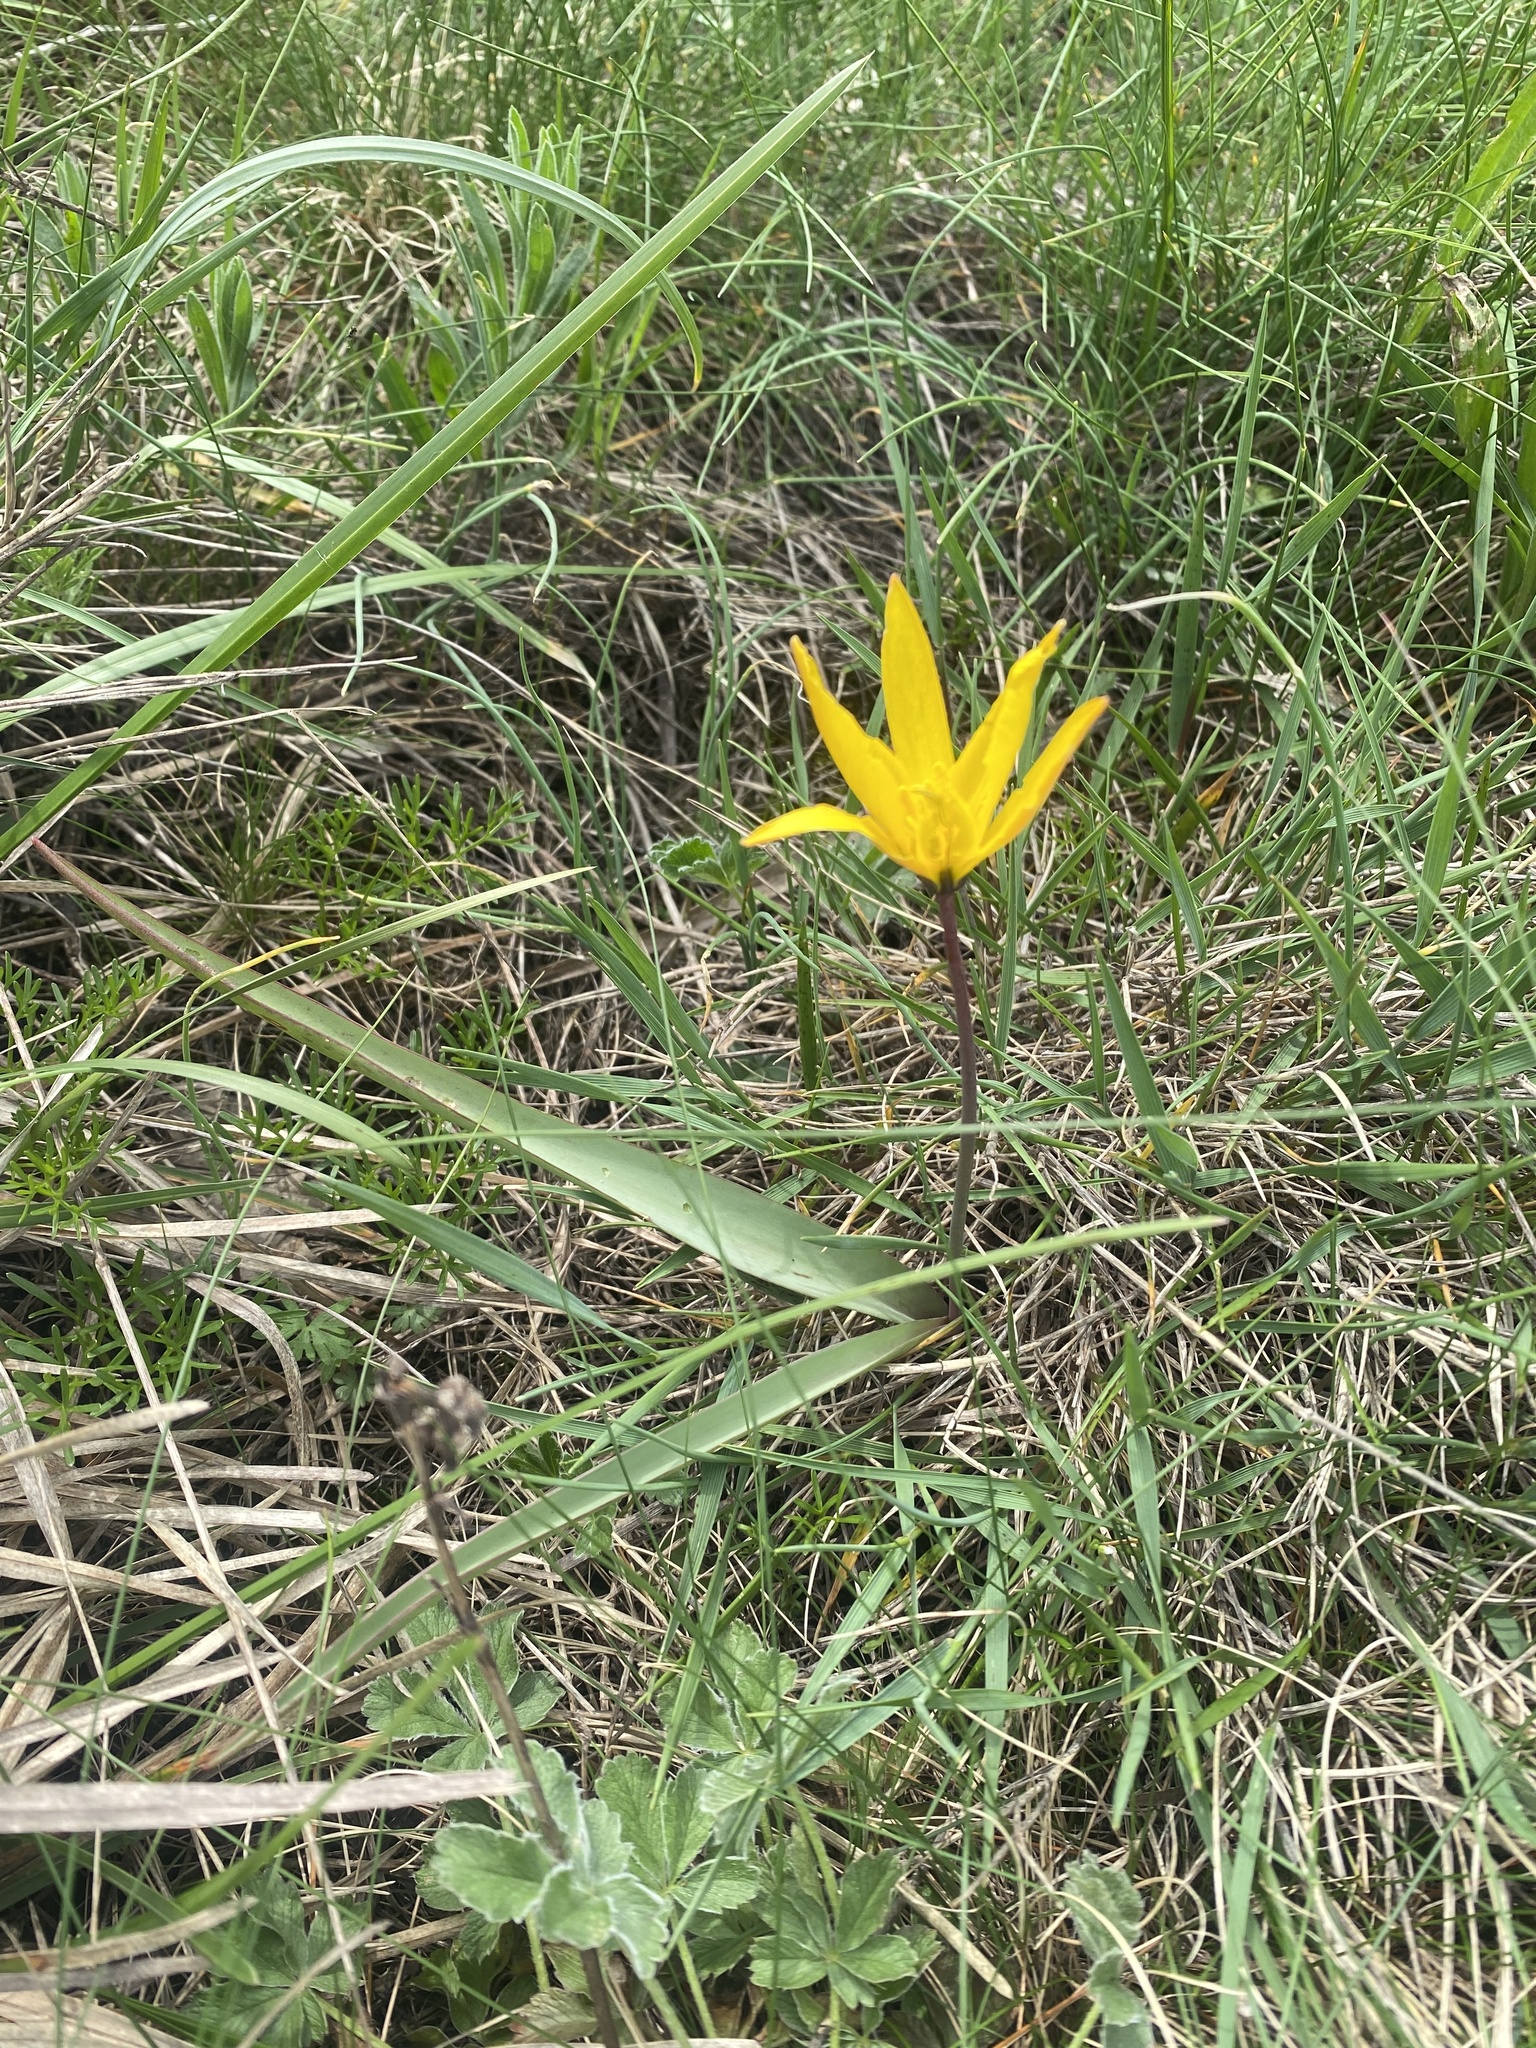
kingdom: Plantae
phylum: Tracheophyta
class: Liliopsida
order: Liliales
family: Liliaceae
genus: Tulipa
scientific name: Tulipa sylvestris
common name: Wild tulip
